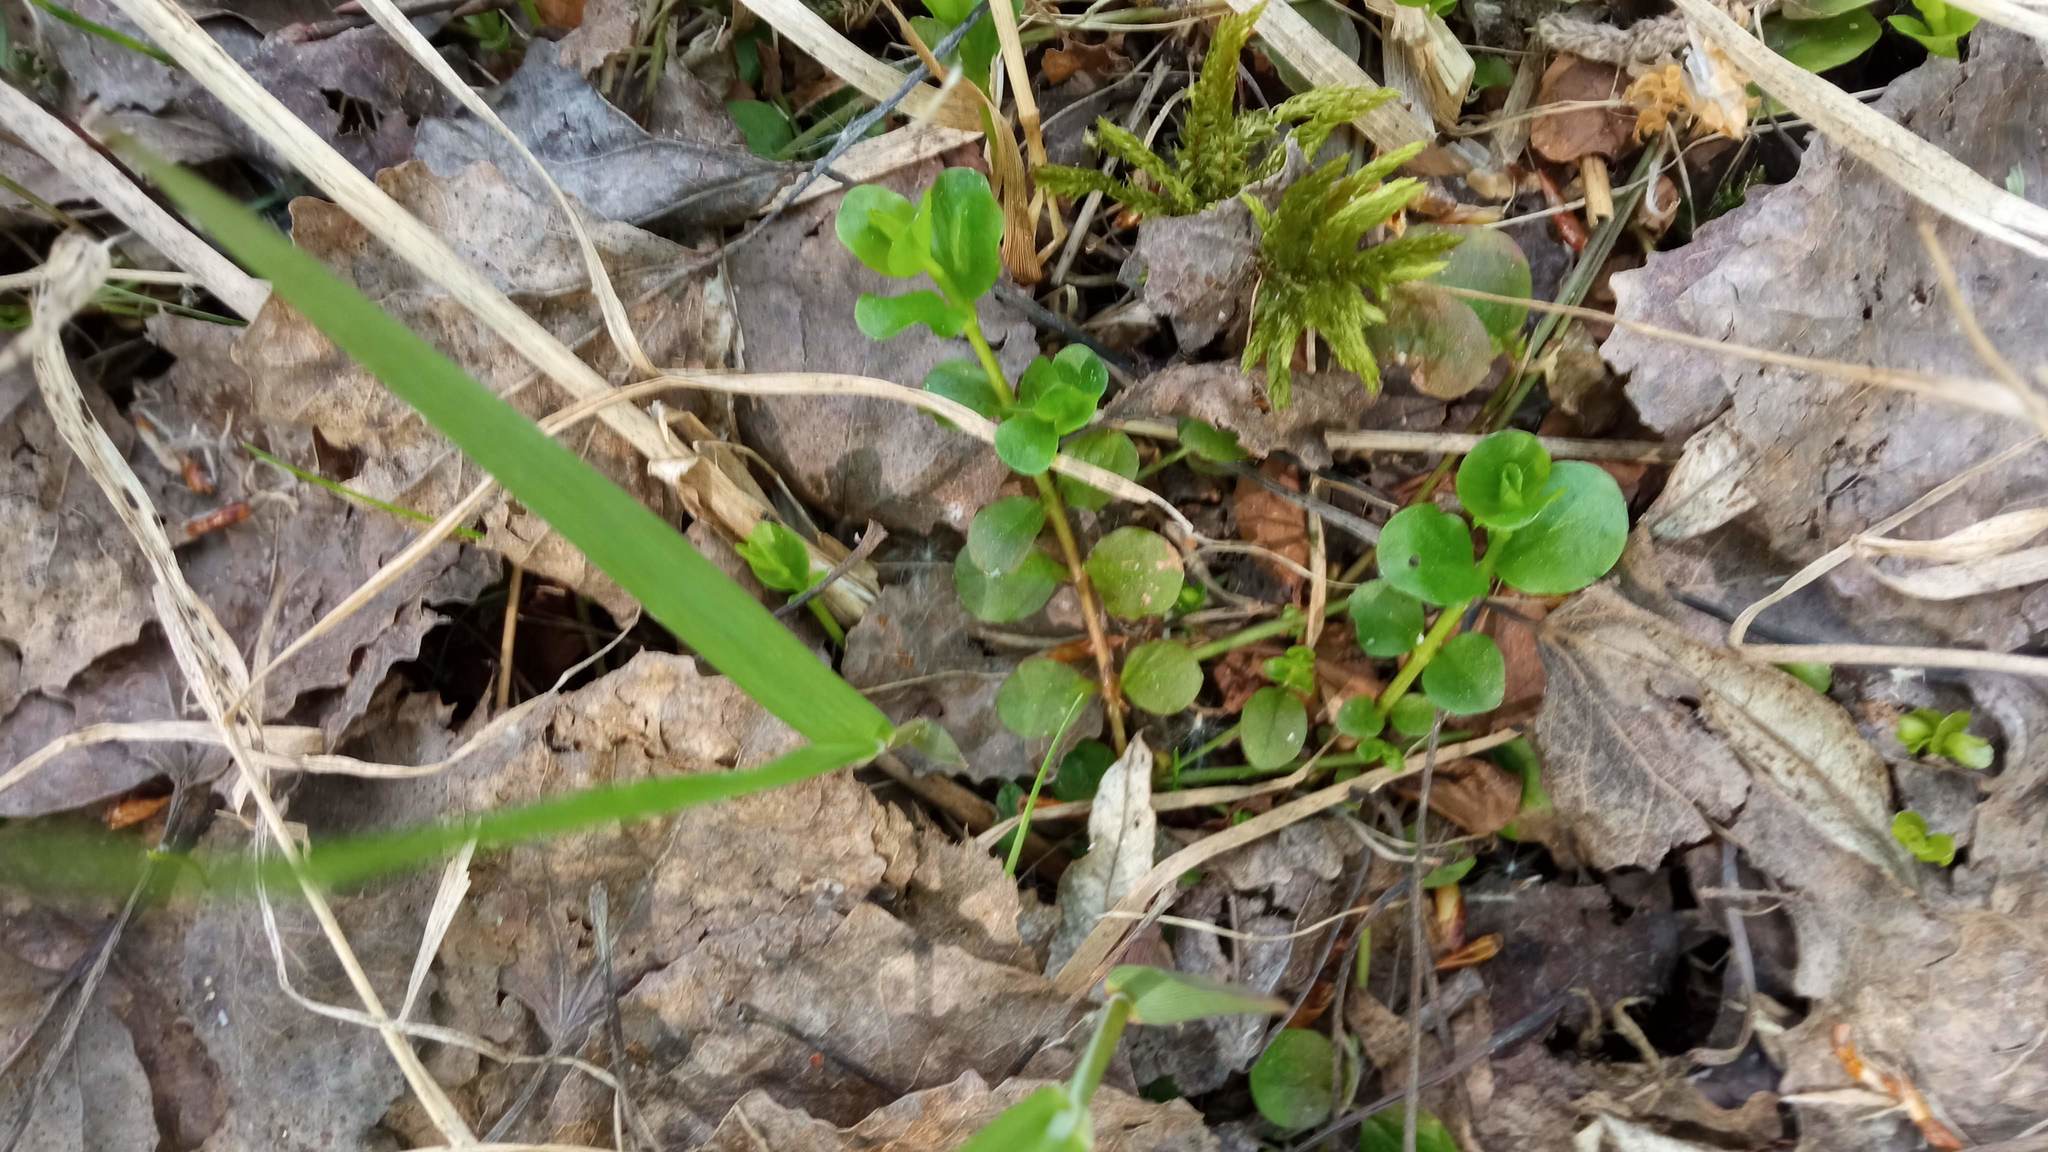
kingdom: Plantae
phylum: Tracheophyta
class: Magnoliopsida
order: Ericales
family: Primulaceae
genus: Lysimachia
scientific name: Lysimachia nummularia
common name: Moneywort
